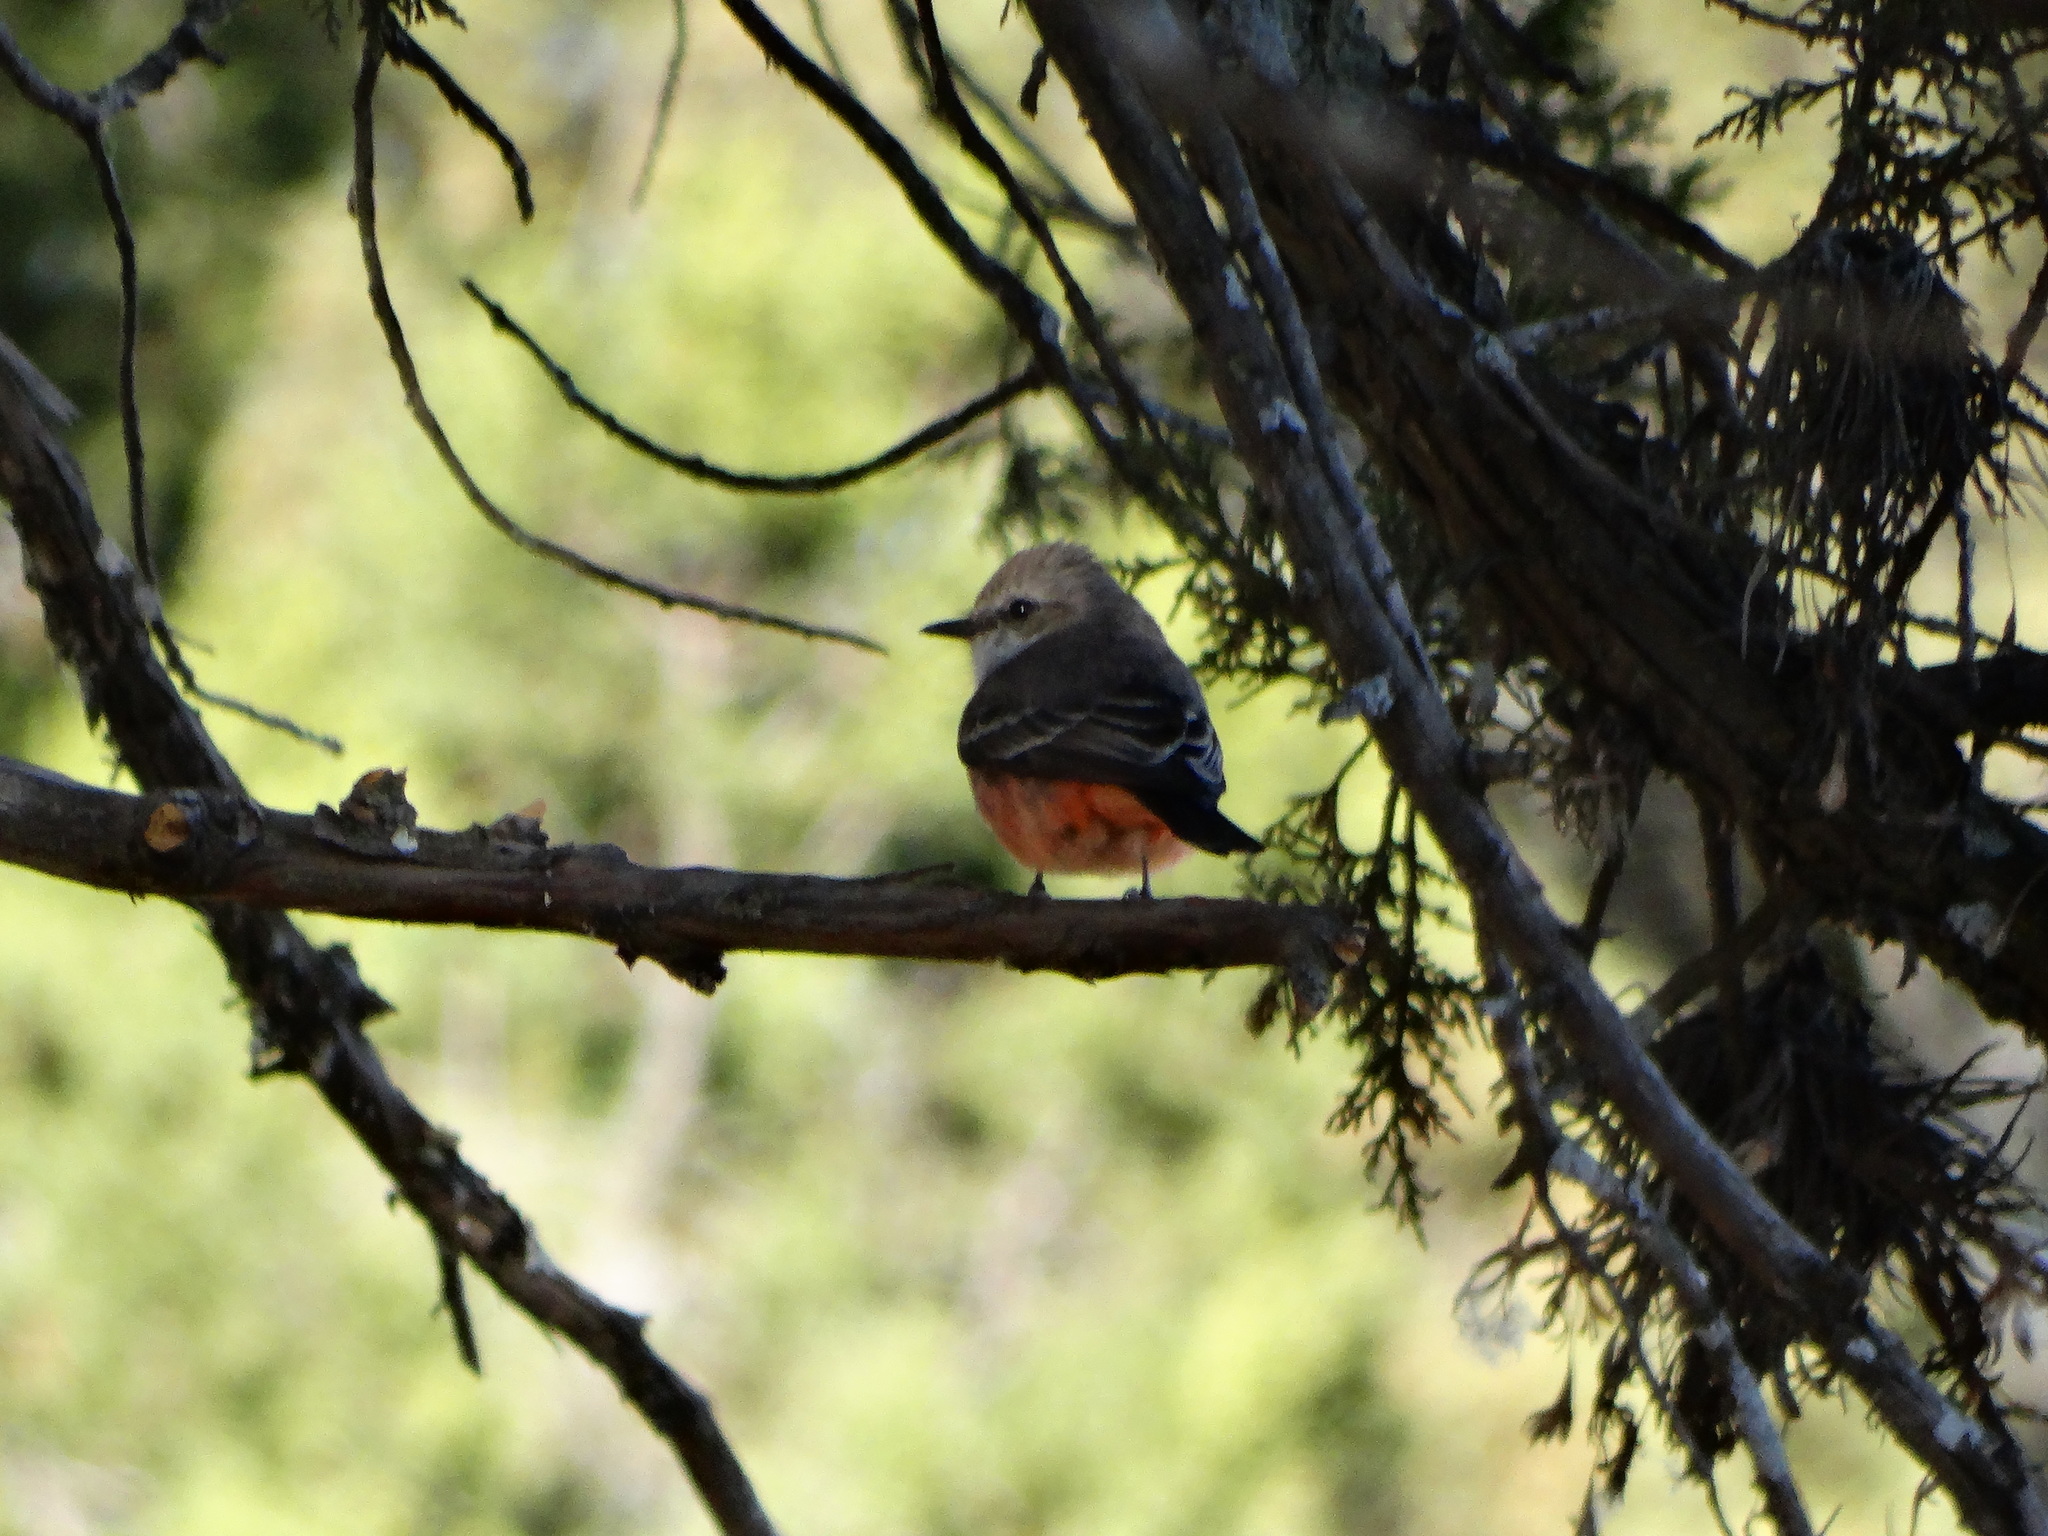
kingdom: Animalia
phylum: Chordata
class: Aves
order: Passeriformes
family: Tyrannidae
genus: Pyrocephalus
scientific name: Pyrocephalus rubinus
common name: Vermilion flycatcher
